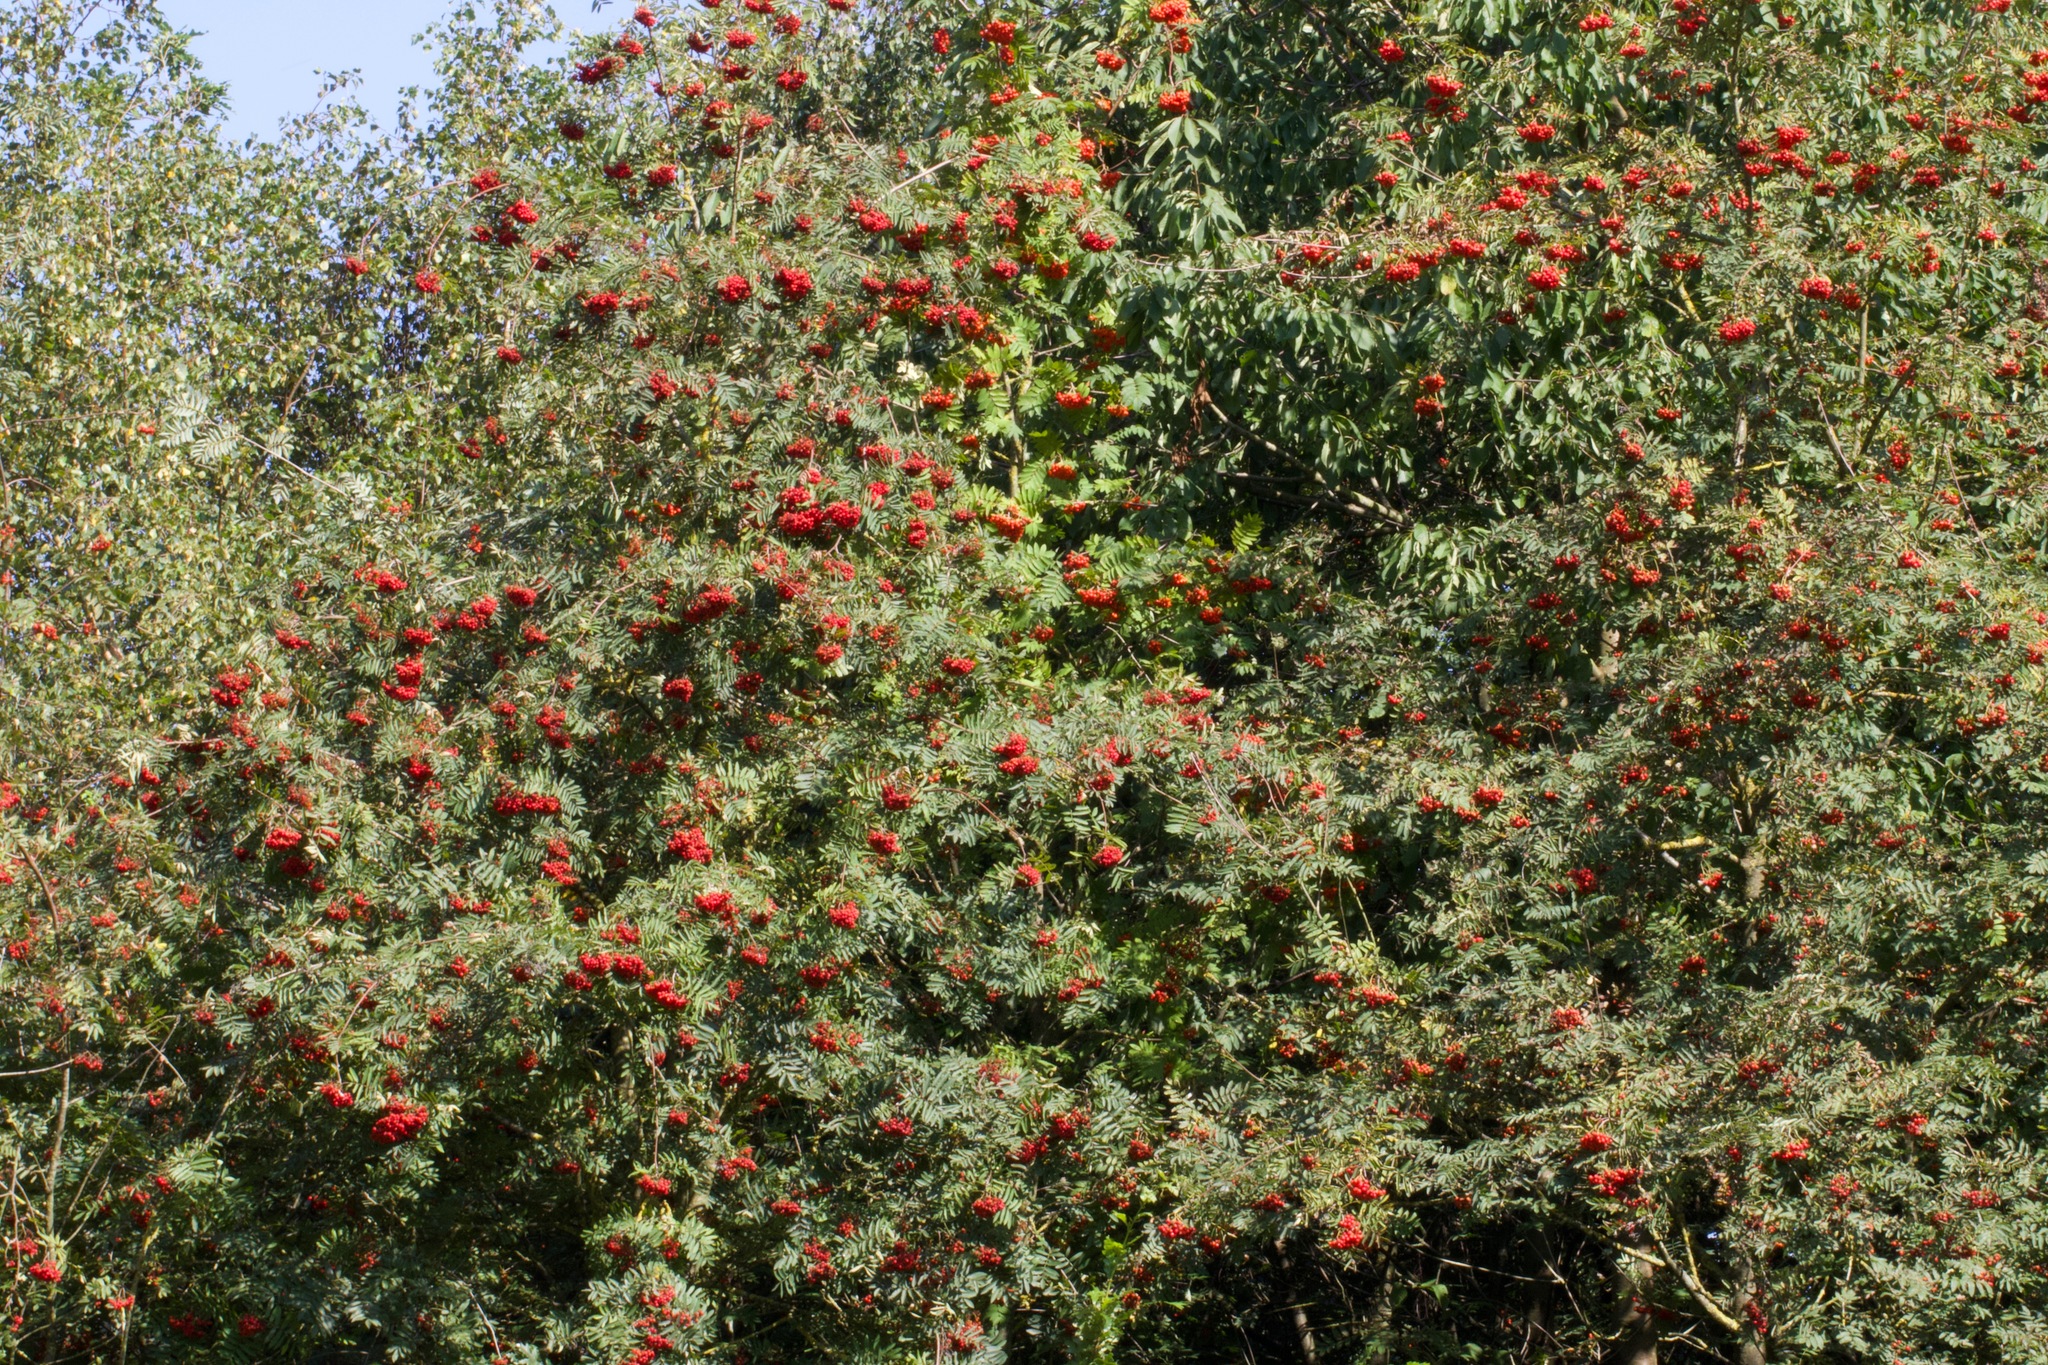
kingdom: Plantae
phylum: Tracheophyta
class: Magnoliopsida
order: Rosales
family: Rosaceae
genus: Sorbus
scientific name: Sorbus aucuparia
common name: Rowan
